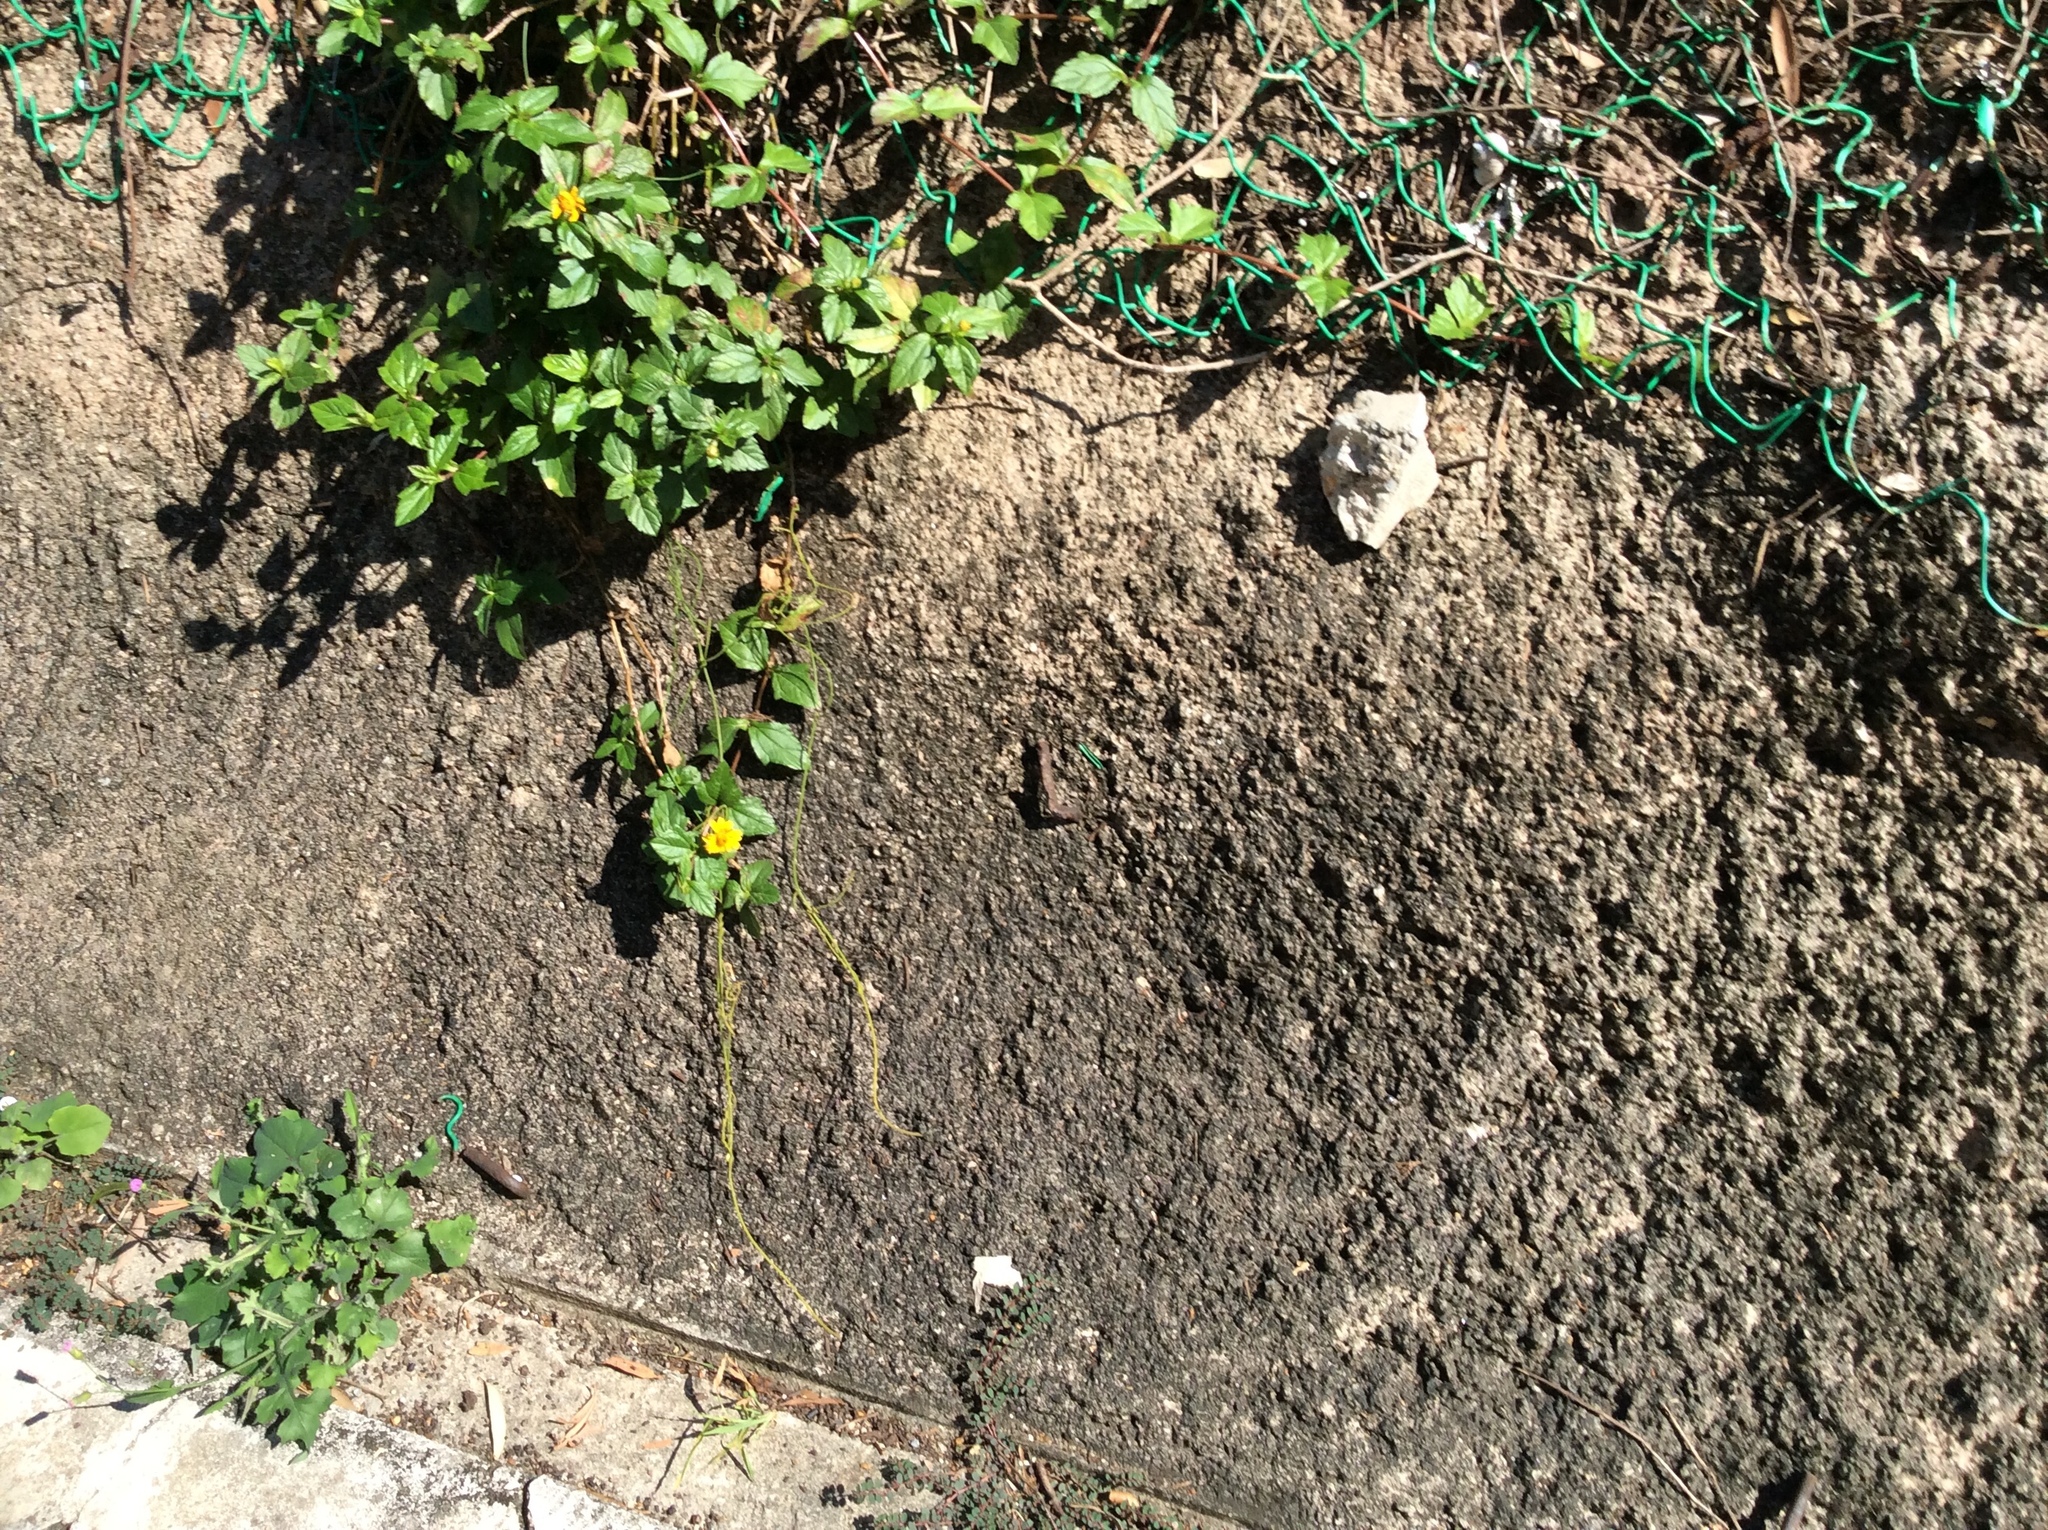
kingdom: Plantae
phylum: Tracheophyta
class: Magnoliopsida
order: Asterales
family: Asteraceae
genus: Sphagneticola
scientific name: Sphagneticola trilobata
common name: Bay biscayne creeping-oxeye
